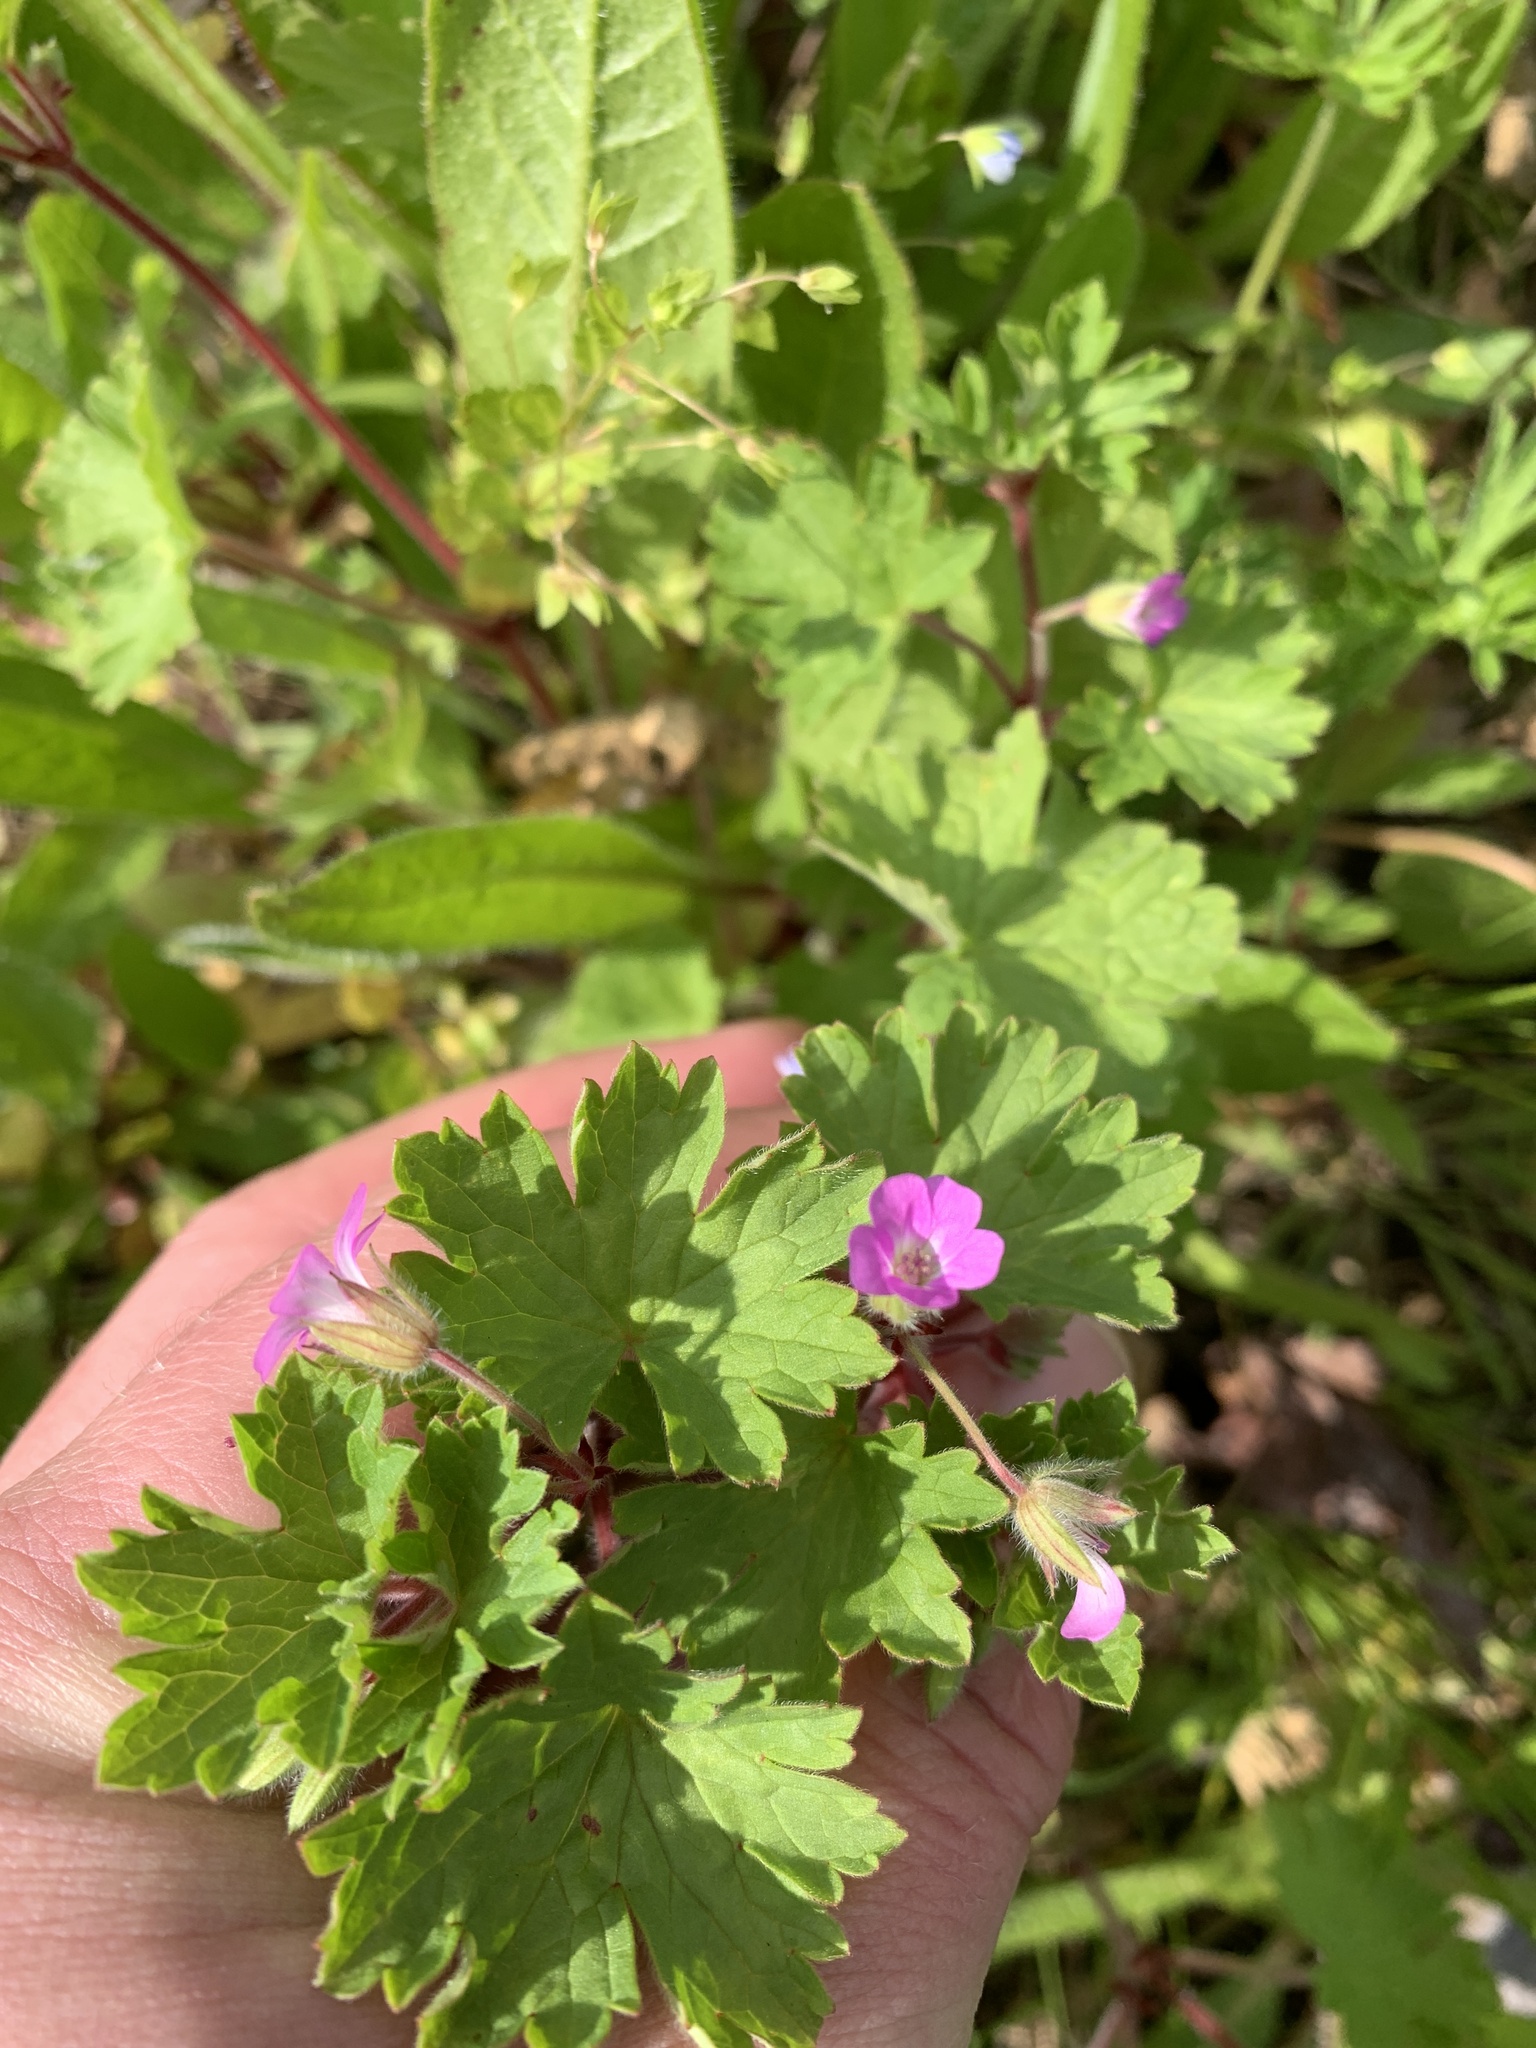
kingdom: Plantae
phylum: Tracheophyta
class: Magnoliopsida
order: Geraniales
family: Geraniaceae
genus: Geranium
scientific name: Geranium rotundifolium
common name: Round-leaved crane's-bill
